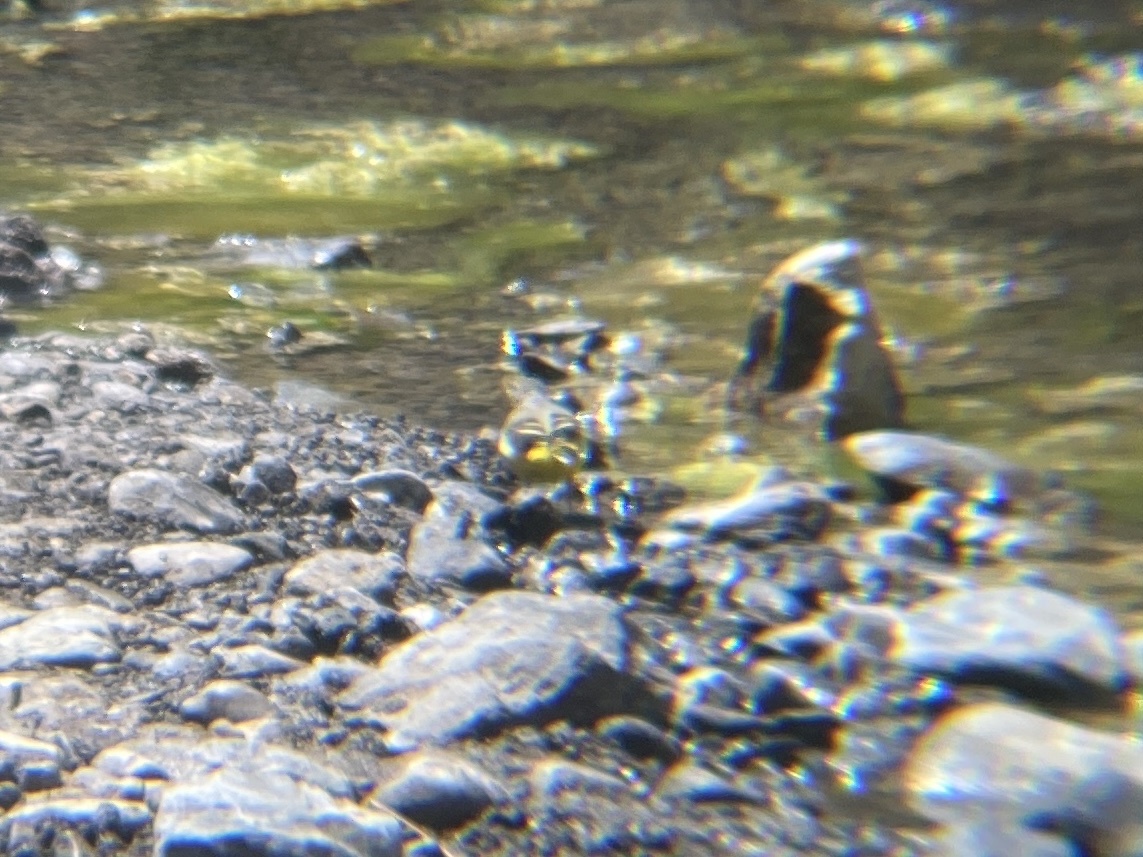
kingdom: Animalia
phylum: Chordata
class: Aves
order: Passeriformes
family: Motacillidae
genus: Motacilla
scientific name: Motacilla cinerea
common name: Grey wagtail
